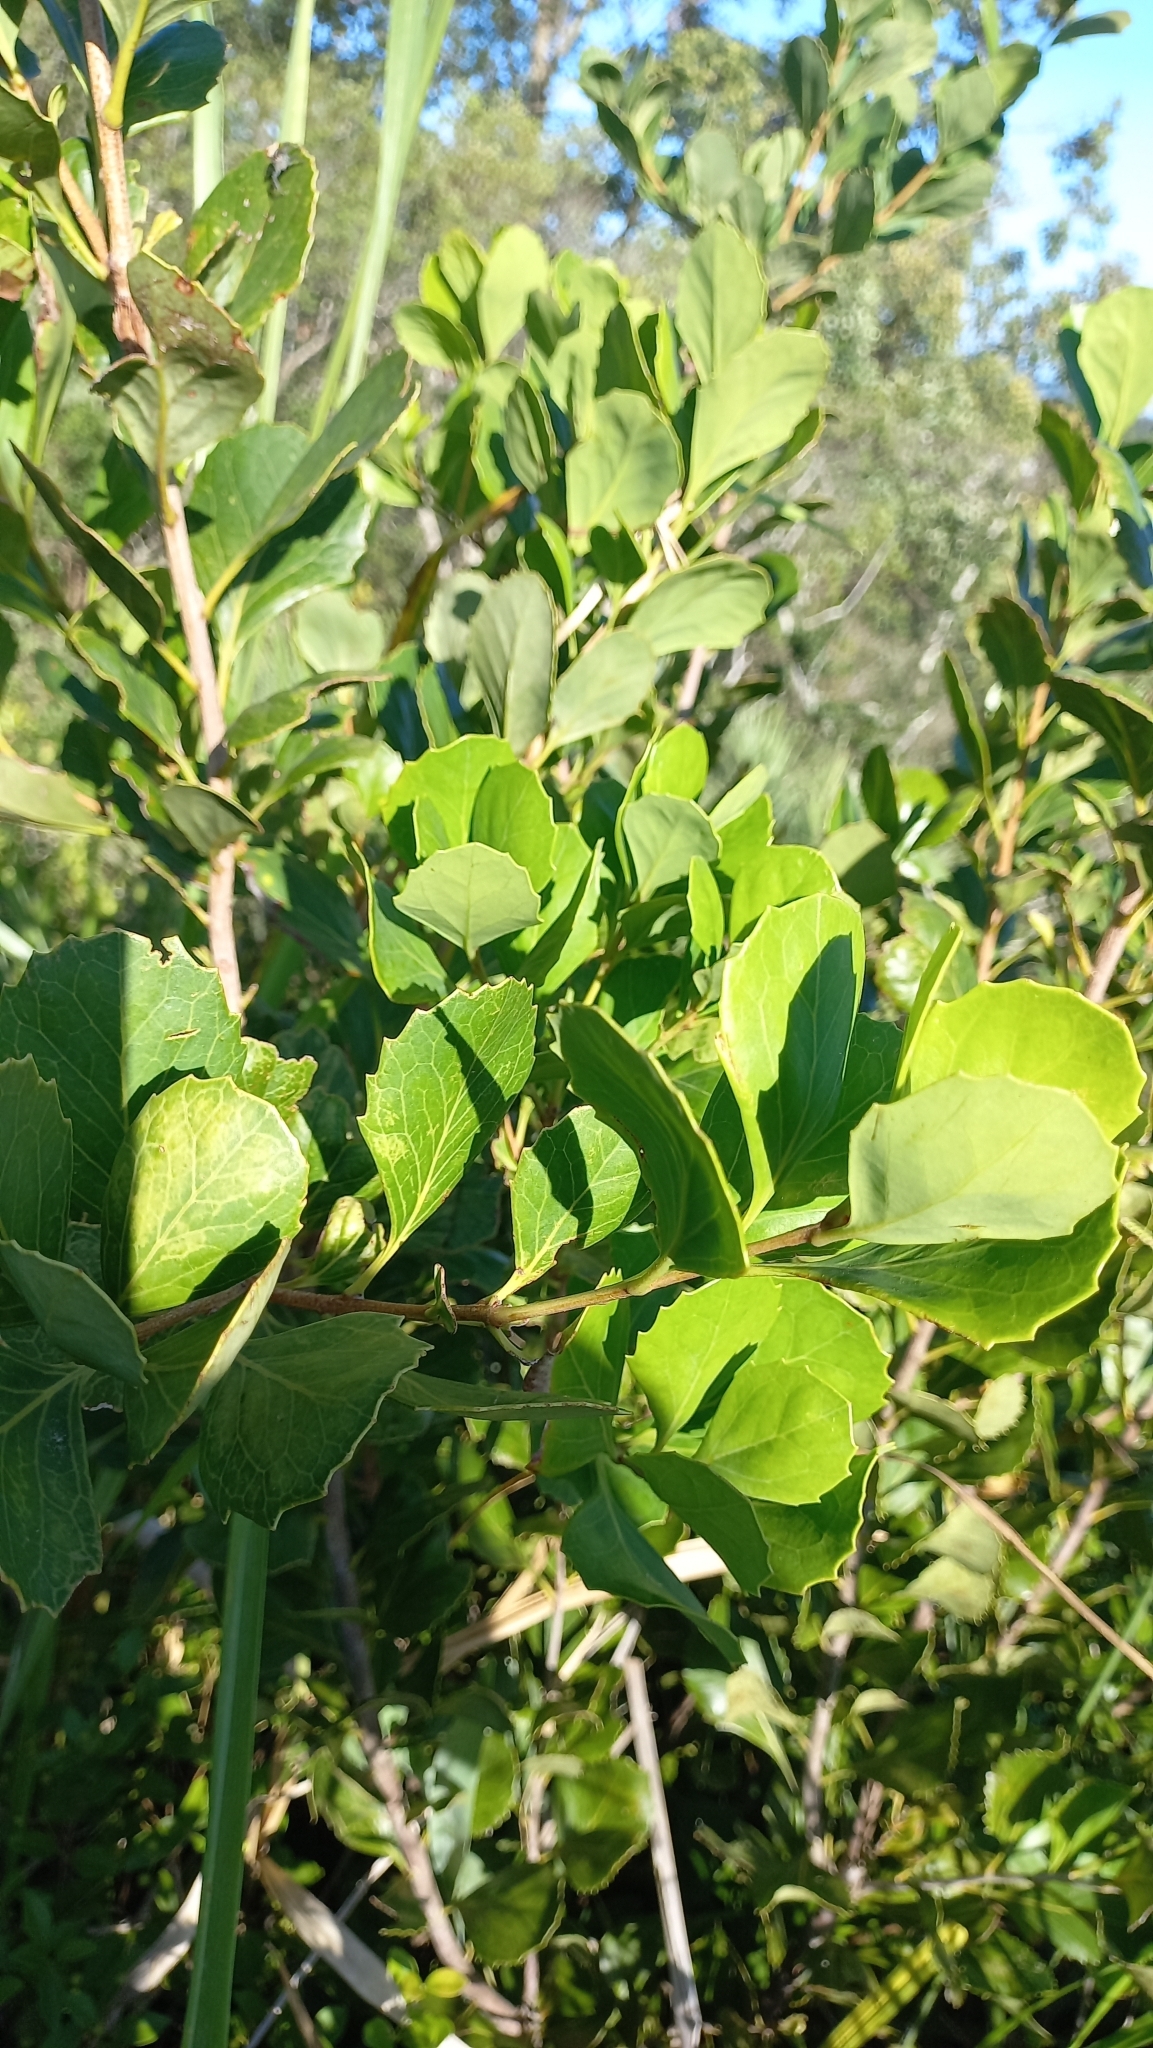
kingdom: Plantae
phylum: Tracheophyta
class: Magnoliopsida
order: Proteales
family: Proteaceae
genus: Roupala
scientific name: Roupala pallida
